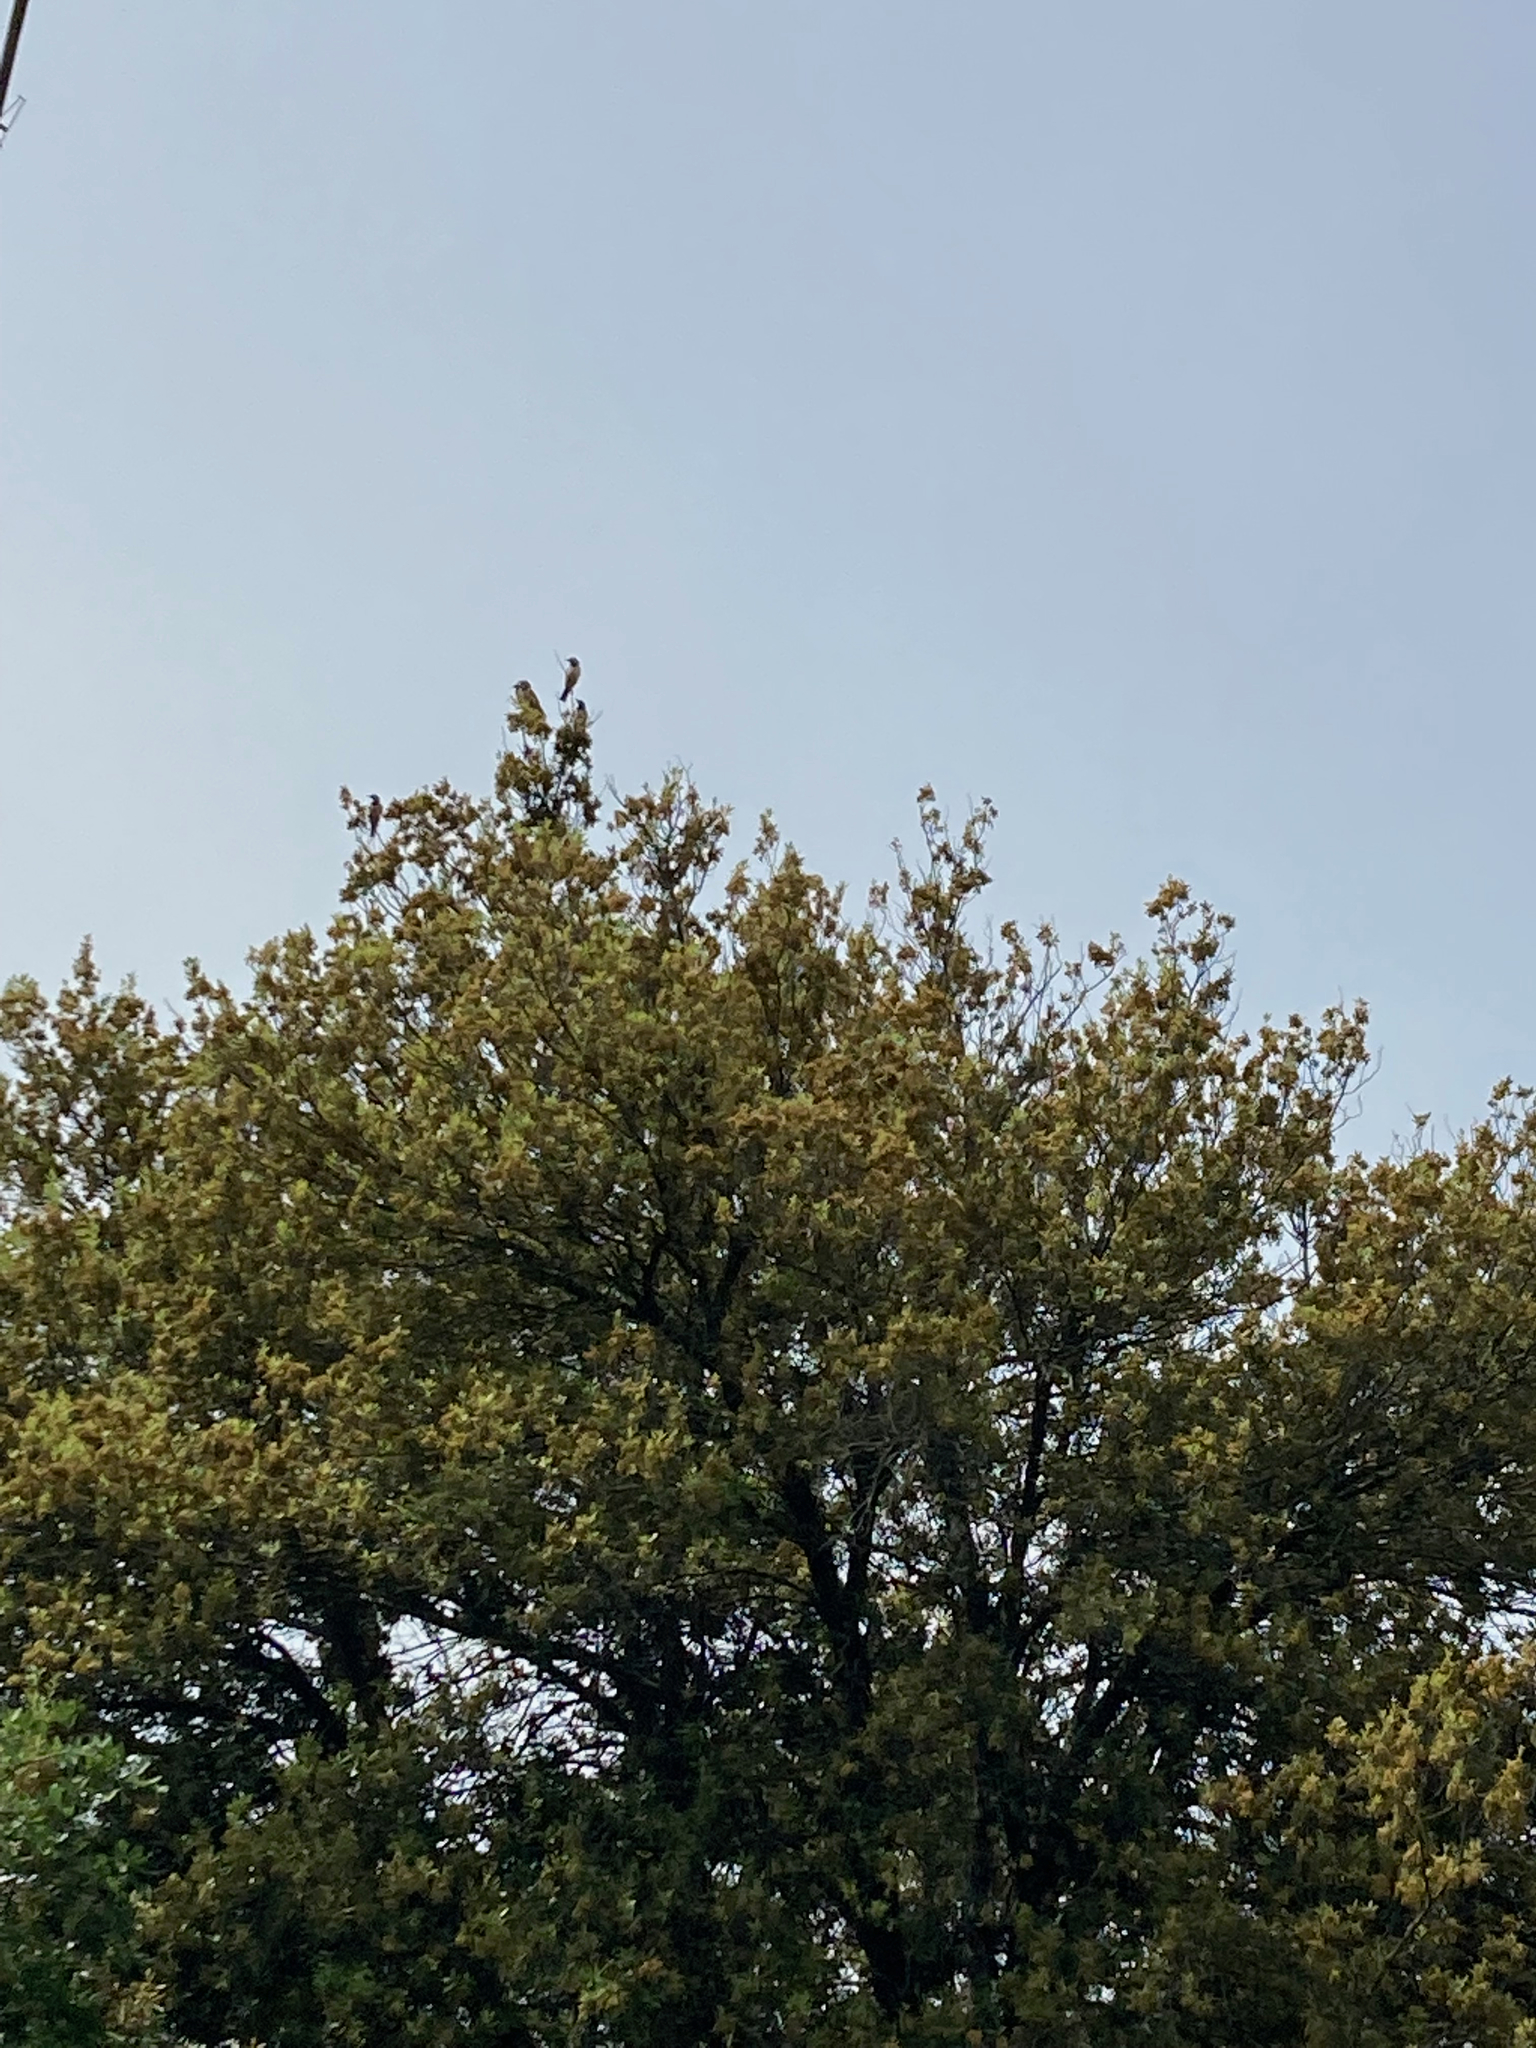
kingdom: Animalia
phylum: Chordata
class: Aves
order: Passeriformes
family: Sturnidae
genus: Pastor
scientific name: Pastor roseus
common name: Rosy starling
